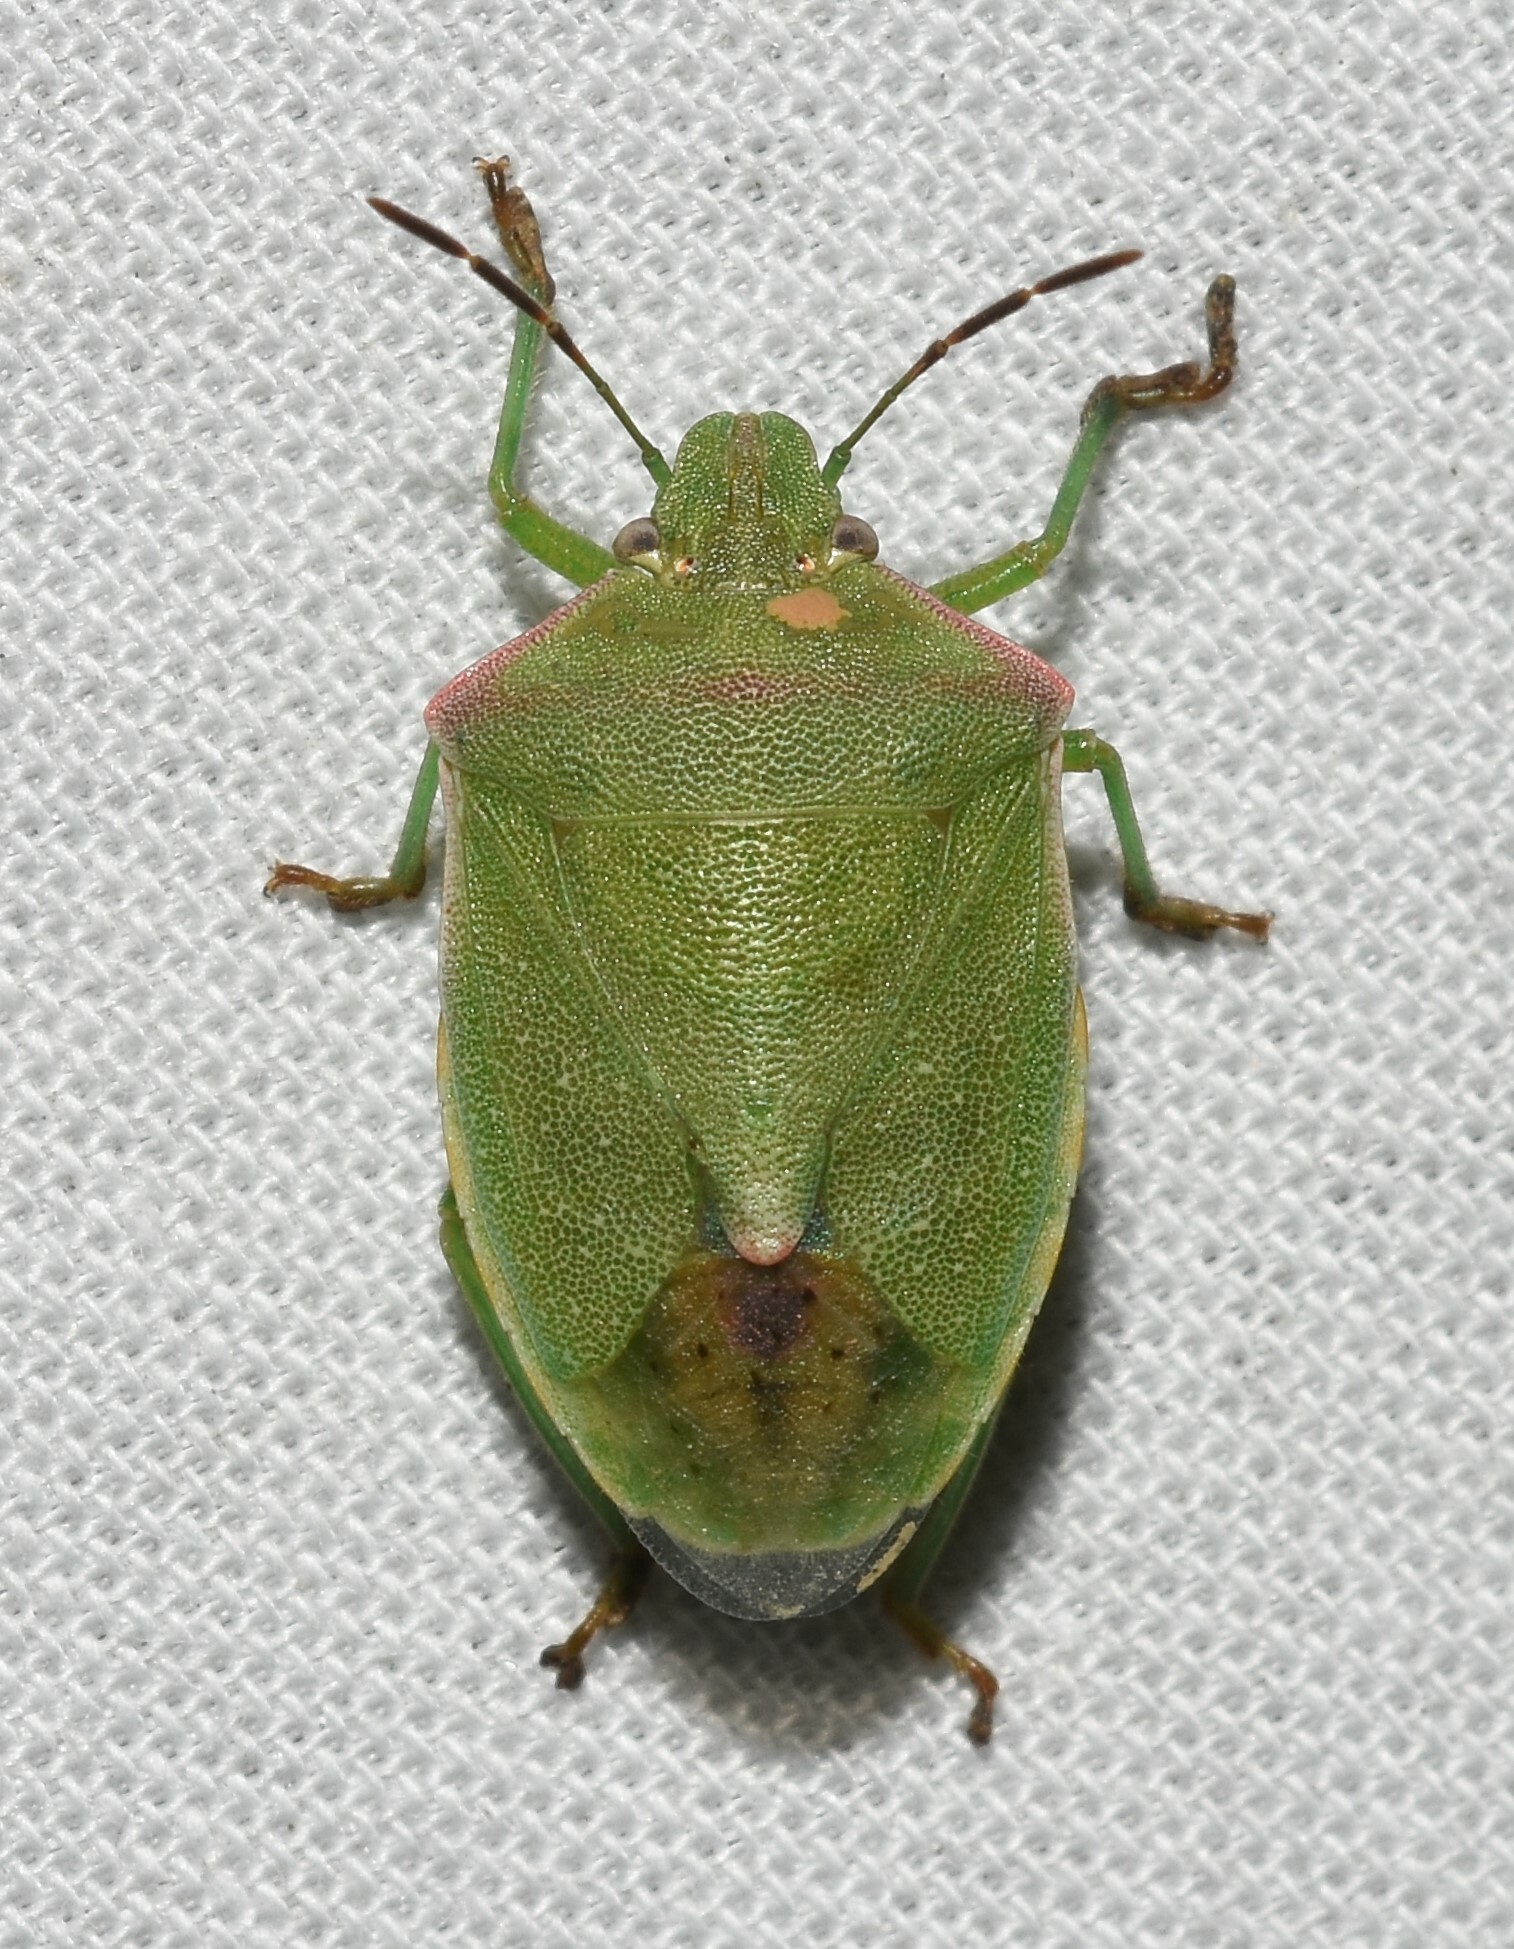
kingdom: Animalia
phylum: Arthropoda
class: Insecta
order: Hemiptera
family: Pentatomidae
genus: Thyanta
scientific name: Thyanta custator
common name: Stink bug
